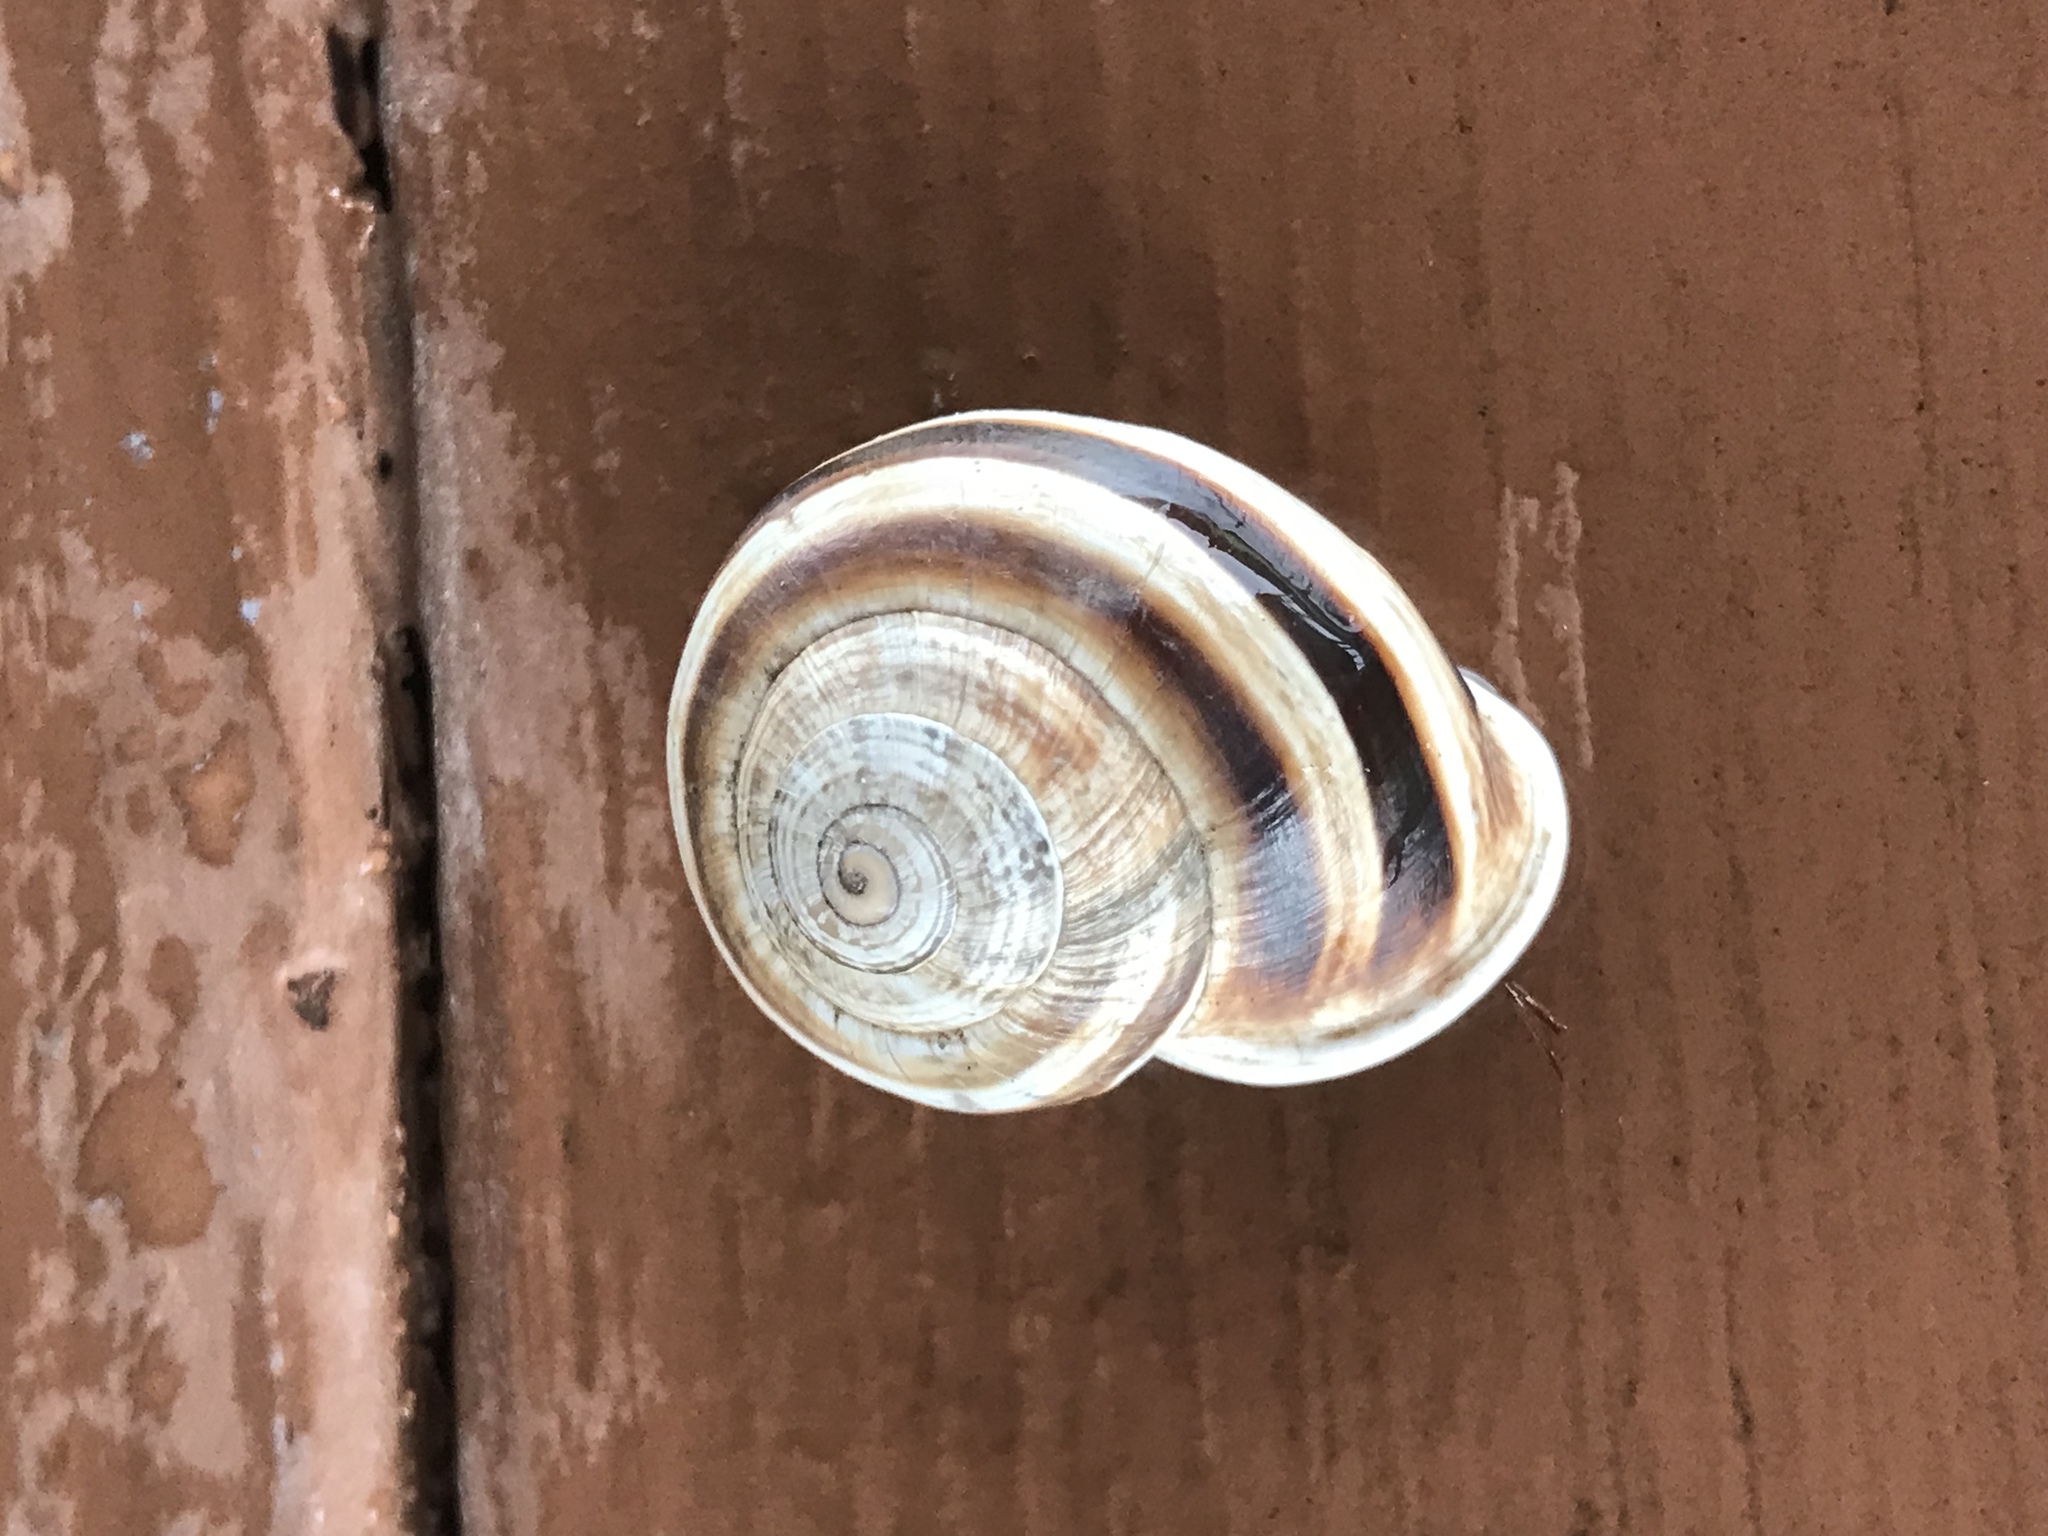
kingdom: Animalia
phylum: Mollusca
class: Gastropoda
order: Stylommatophora
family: Helicidae
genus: Otala
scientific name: Otala lactea
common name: Milk snail
